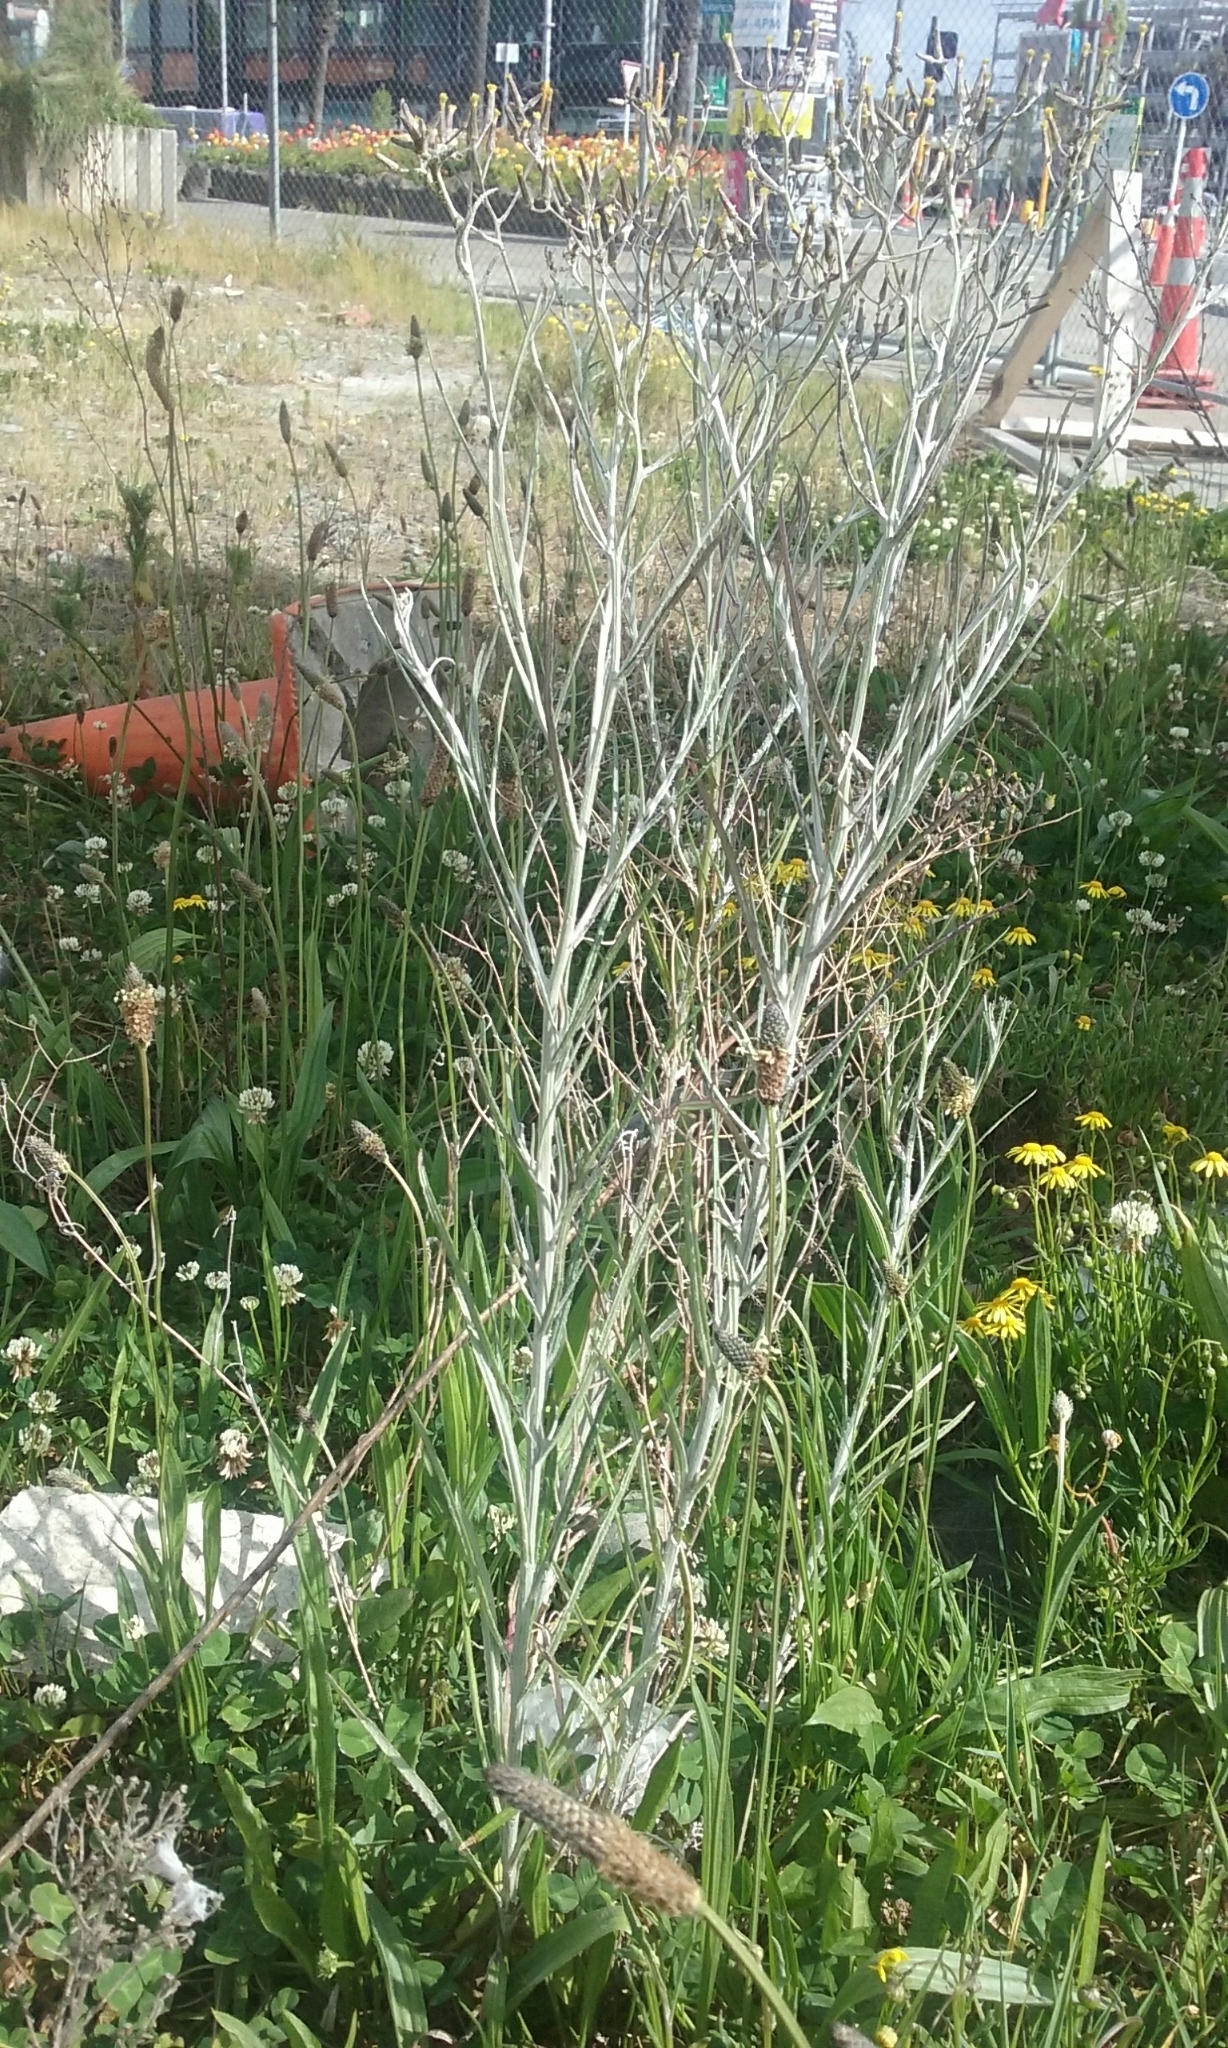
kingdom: Plantae
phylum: Tracheophyta
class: Magnoliopsida
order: Asterales
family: Asteraceae
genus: Senecio
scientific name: Senecio quadridentatus
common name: Cotton fireweed
